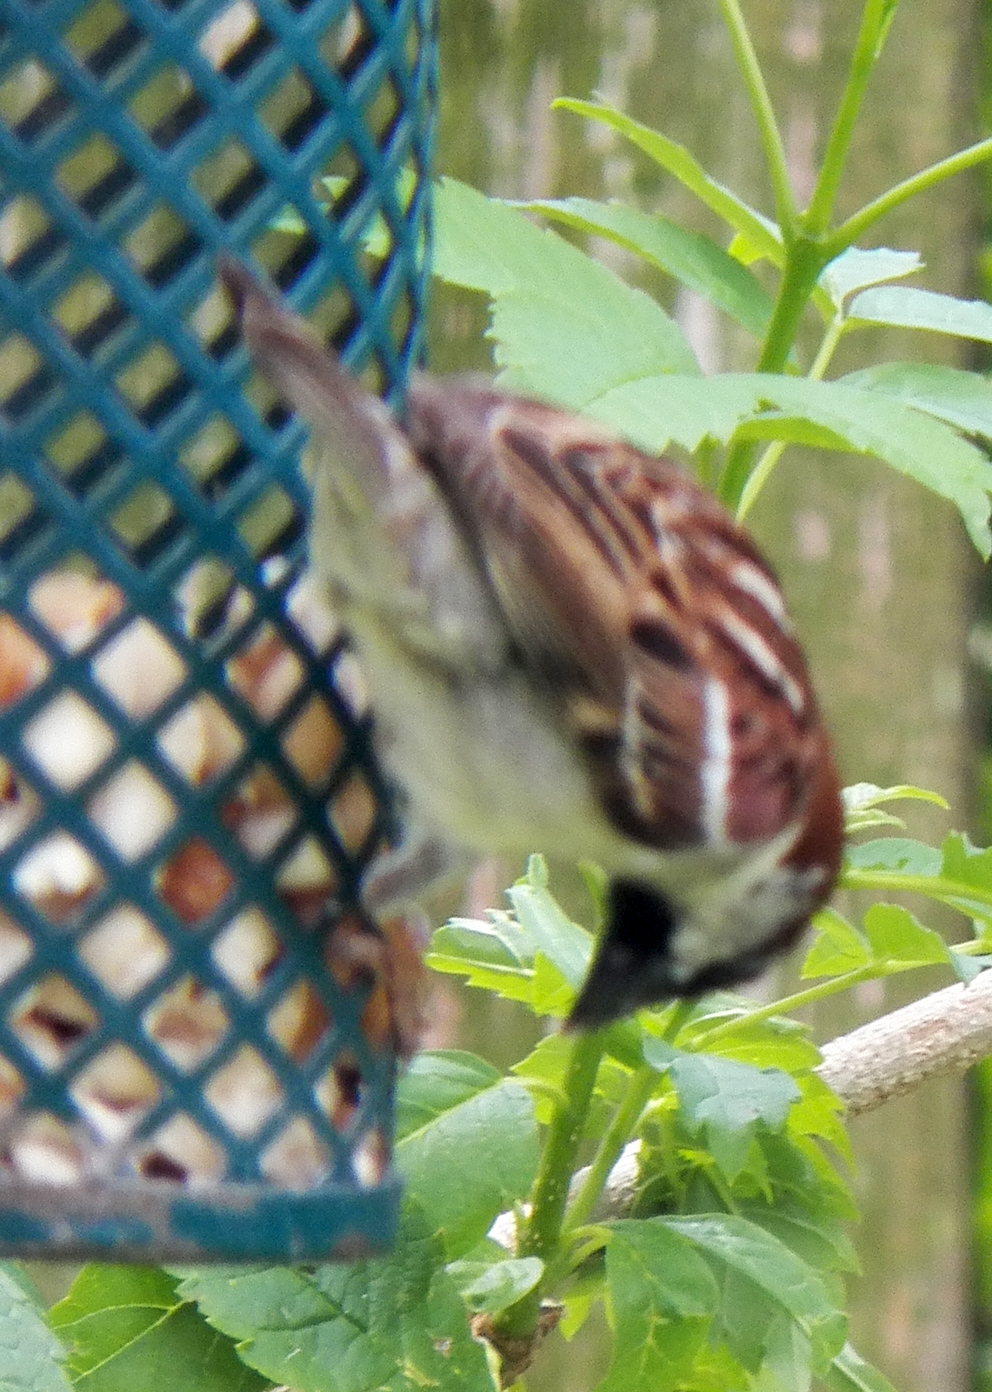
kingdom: Animalia
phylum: Chordata
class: Aves
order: Passeriformes
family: Passeridae
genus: Passer
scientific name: Passer domesticus
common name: House sparrow
